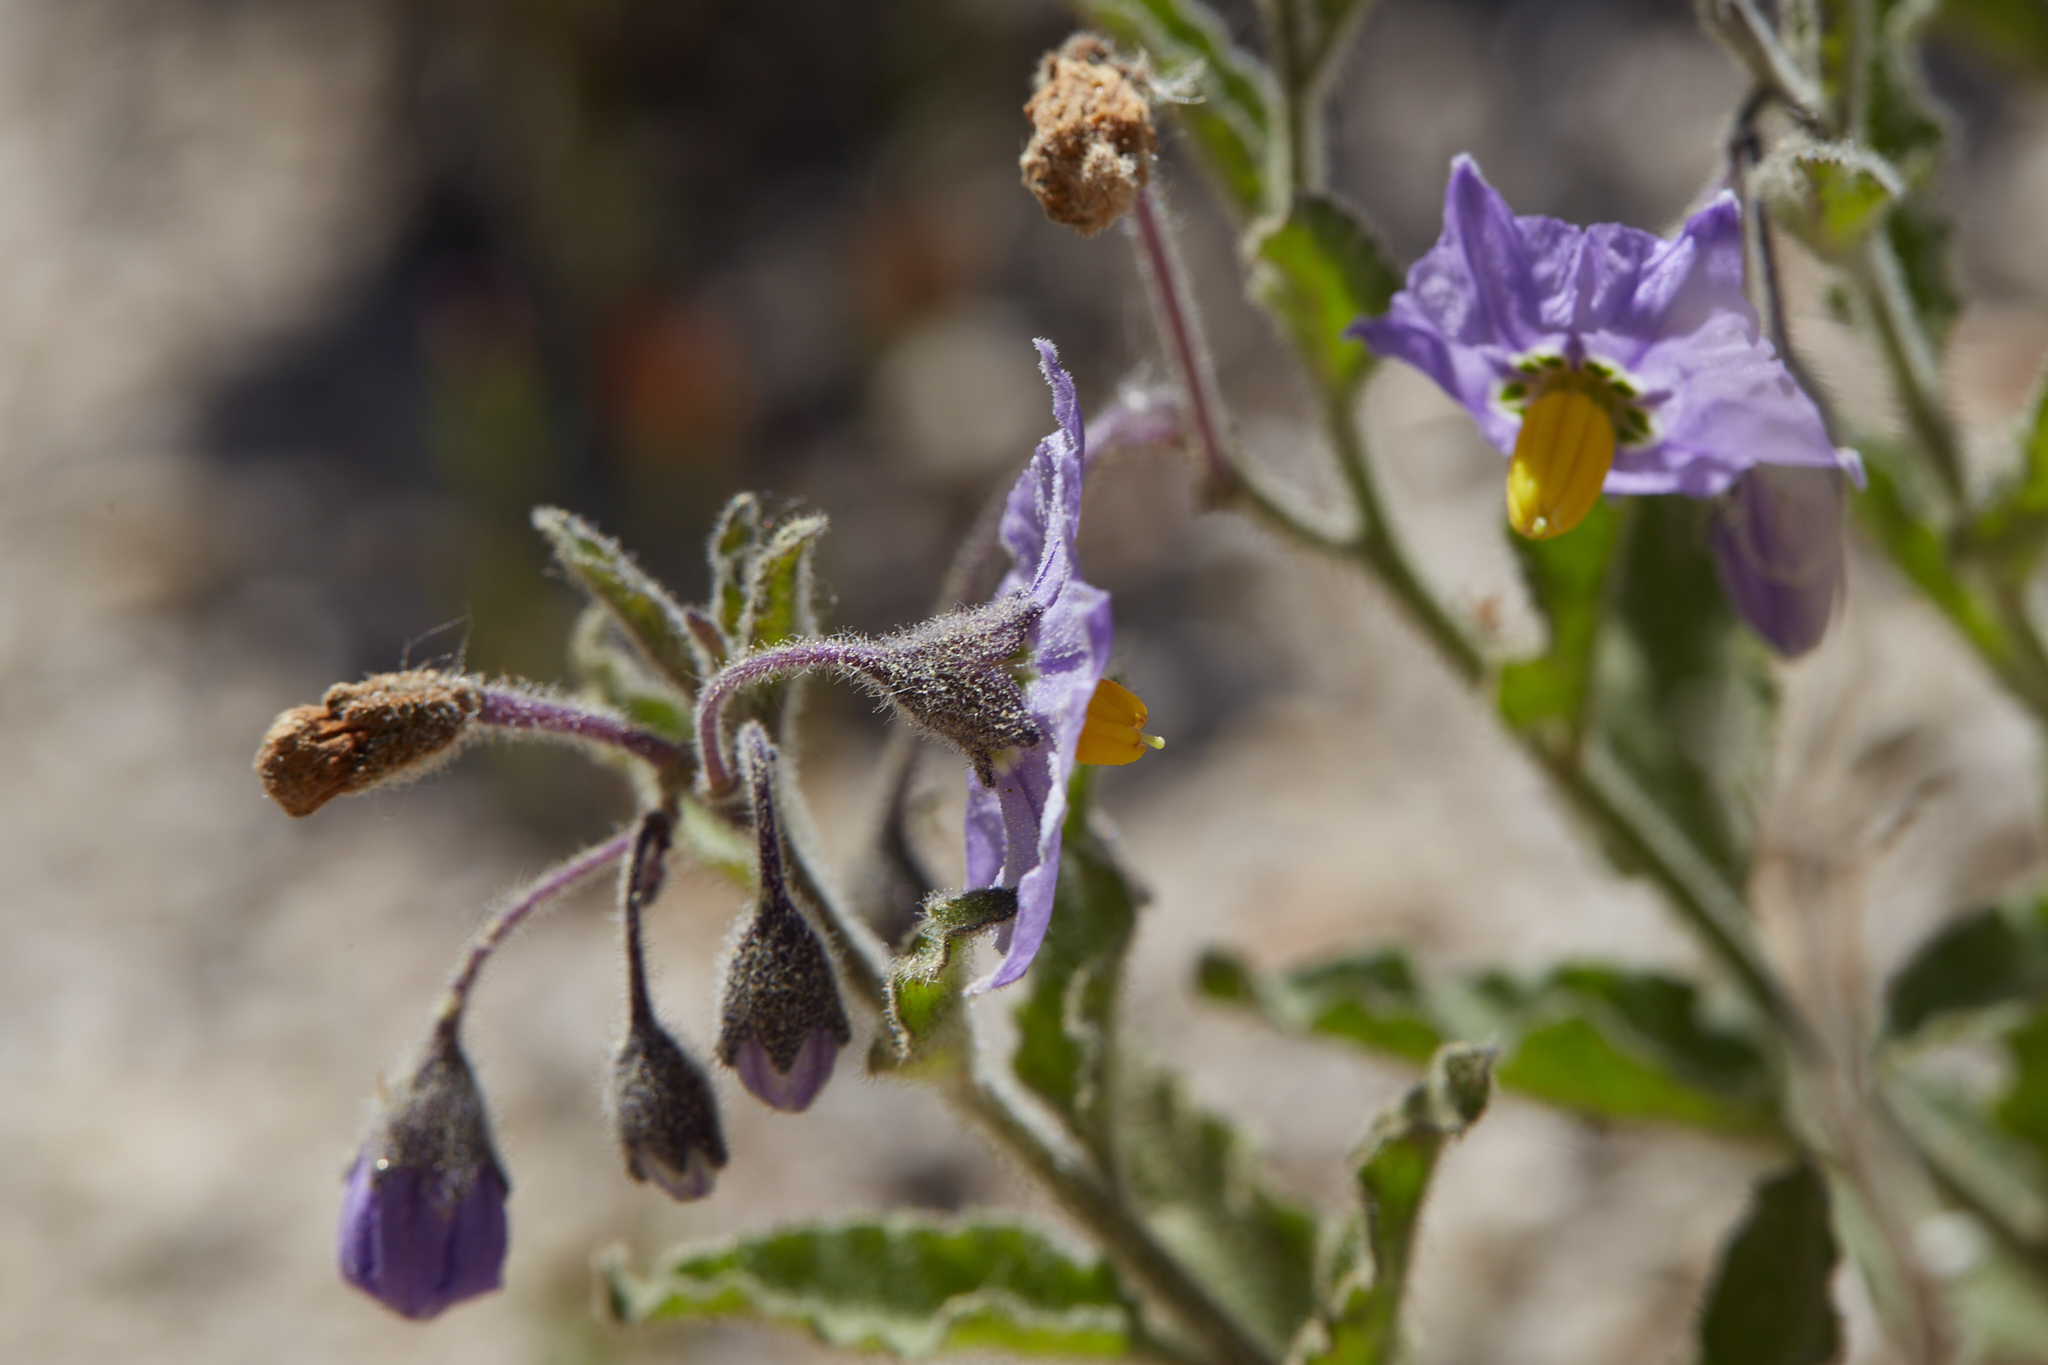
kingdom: Plantae
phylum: Tracheophyta
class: Magnoliopsida
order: Solanales
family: Solanaceae
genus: Solanum
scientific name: Solanum umbelliferum
